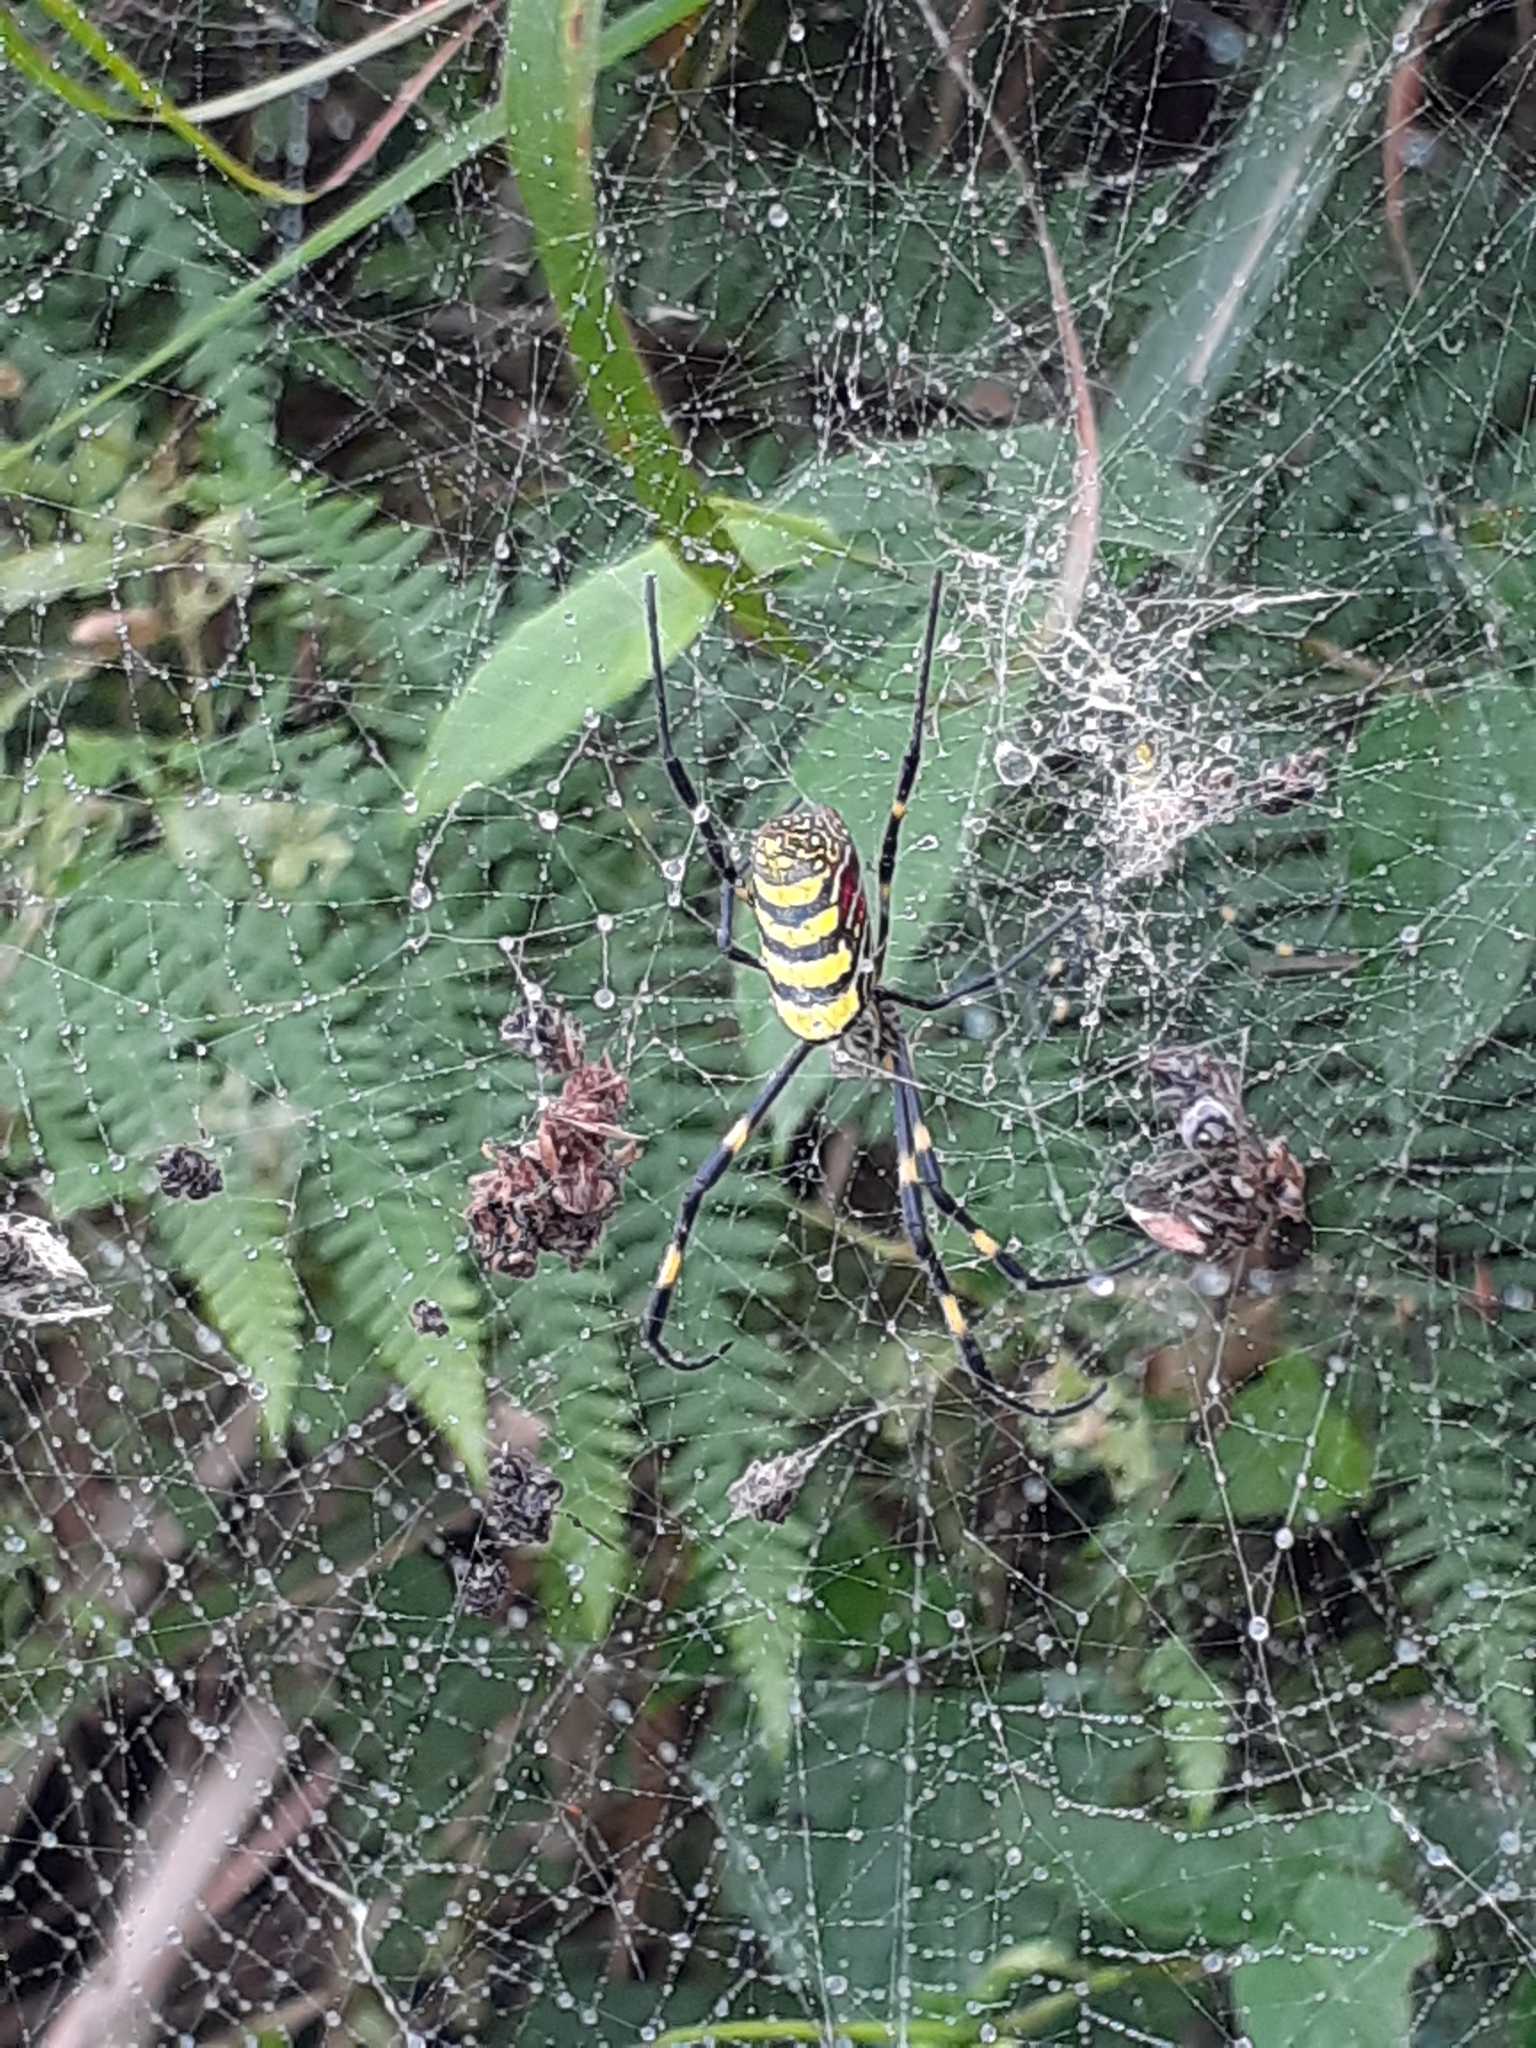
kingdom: Animalia
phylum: Arthropoda
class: Arachnida
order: Araneae
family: Araneidae
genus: Trichonephila
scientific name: Trichonephila clavata
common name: Jorō spider
